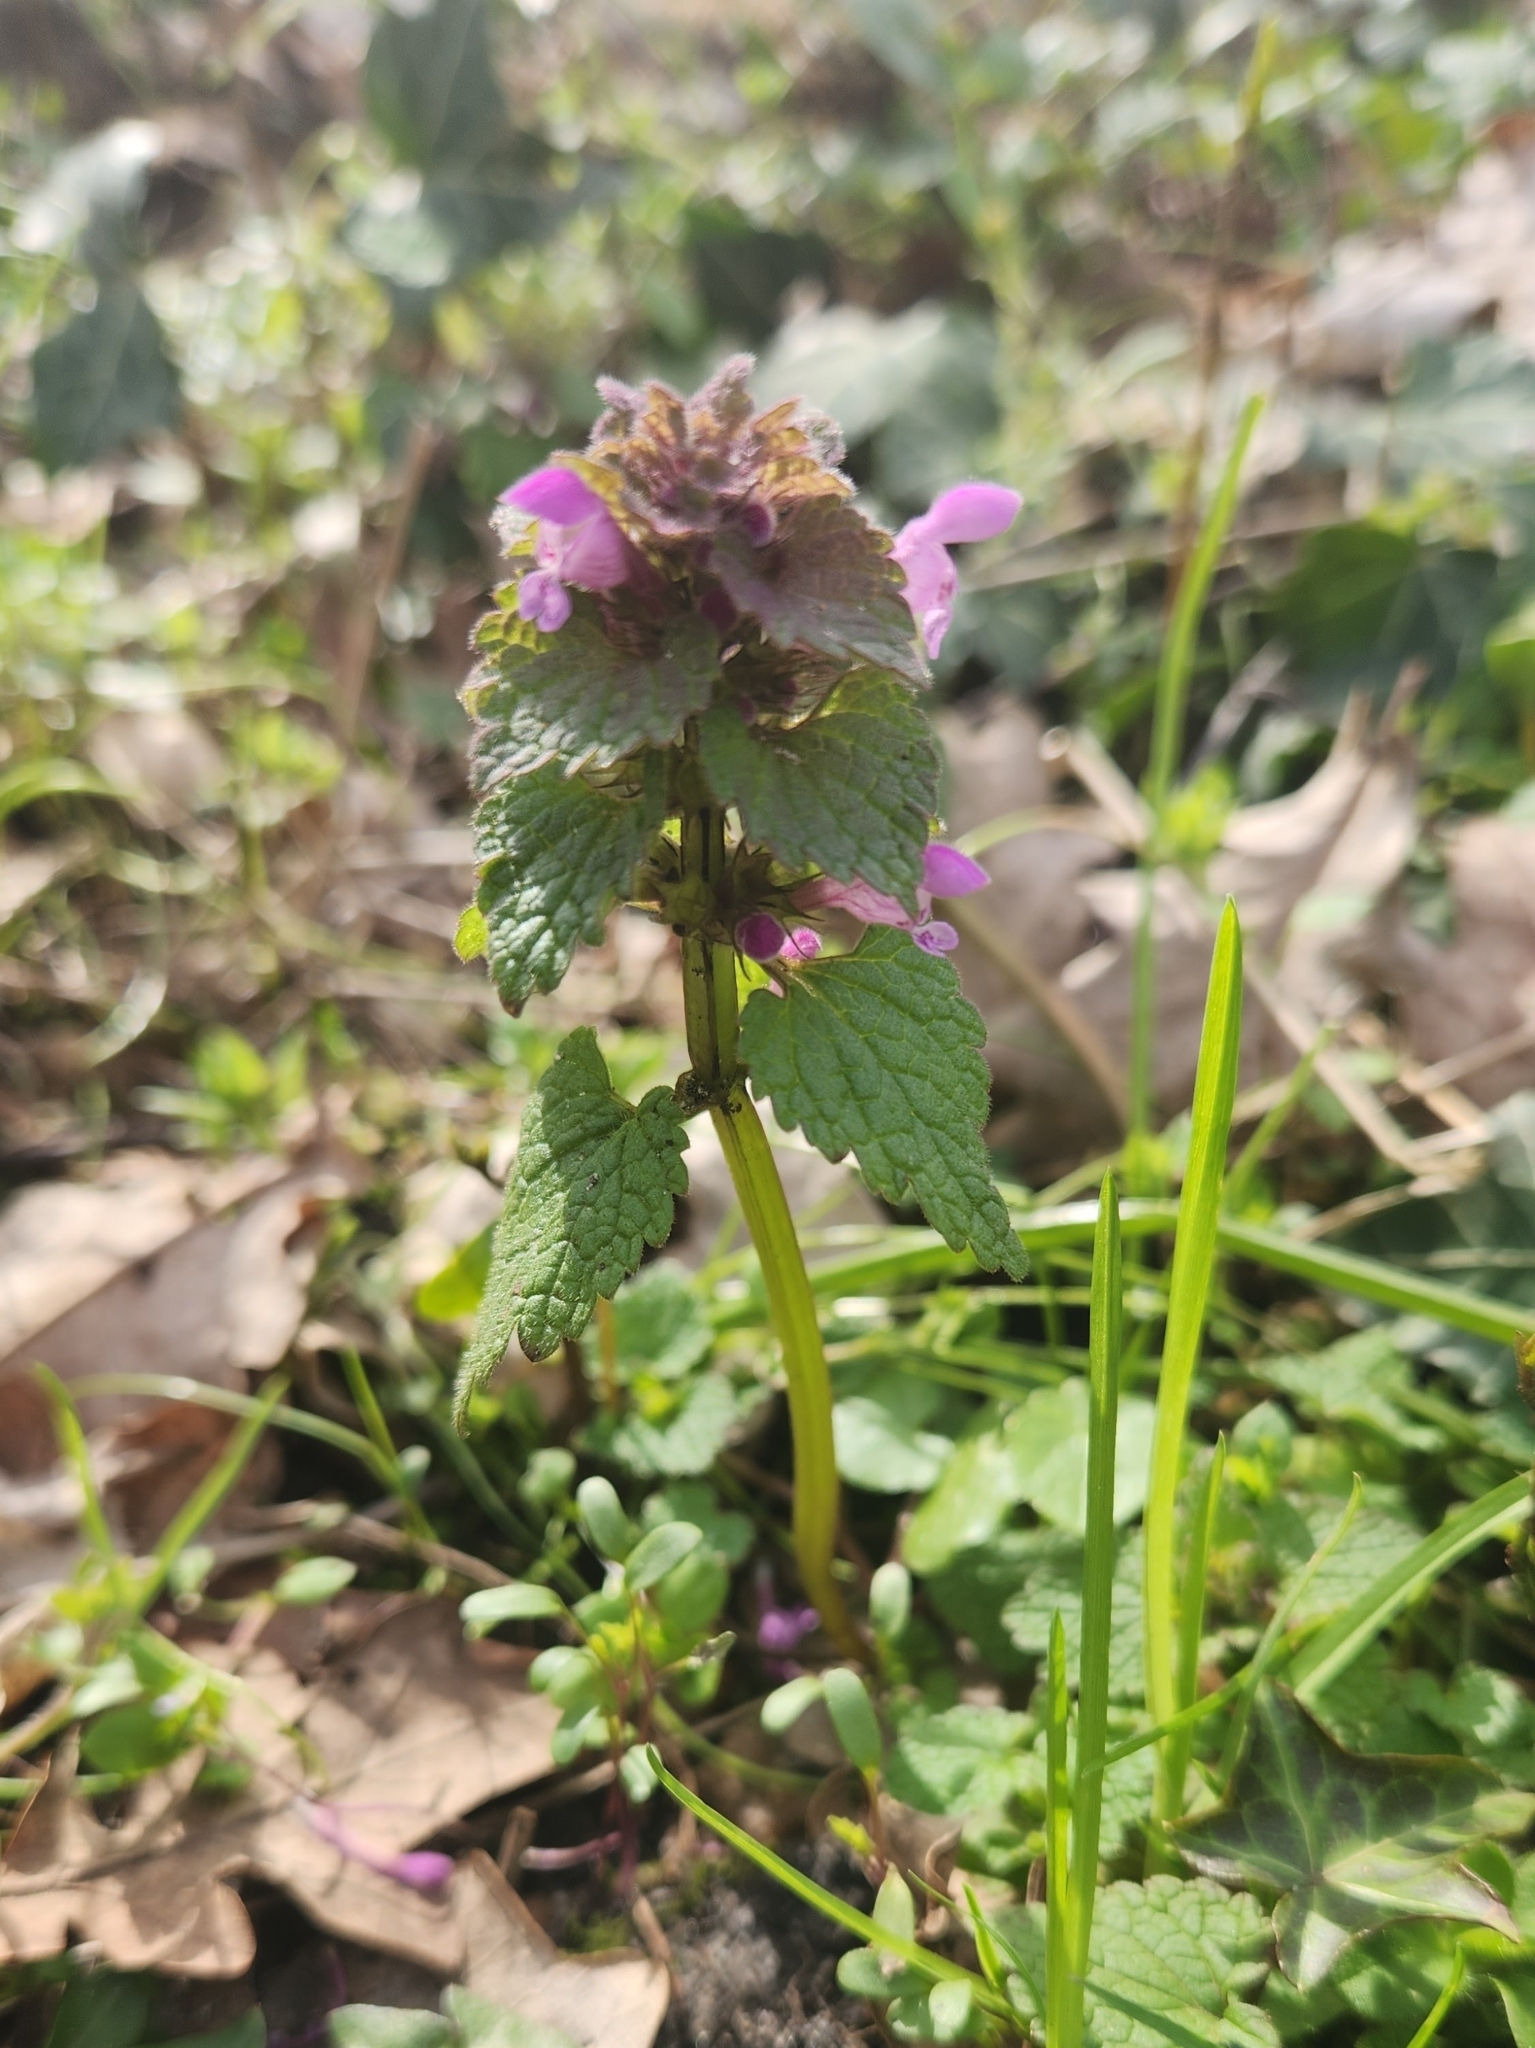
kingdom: Plantae
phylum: Tracheophyta
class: Magnoliopsida
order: Lamiales
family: Lamiaceae
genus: Lamium
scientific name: Lamium purpureum
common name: Red dead-nettle
